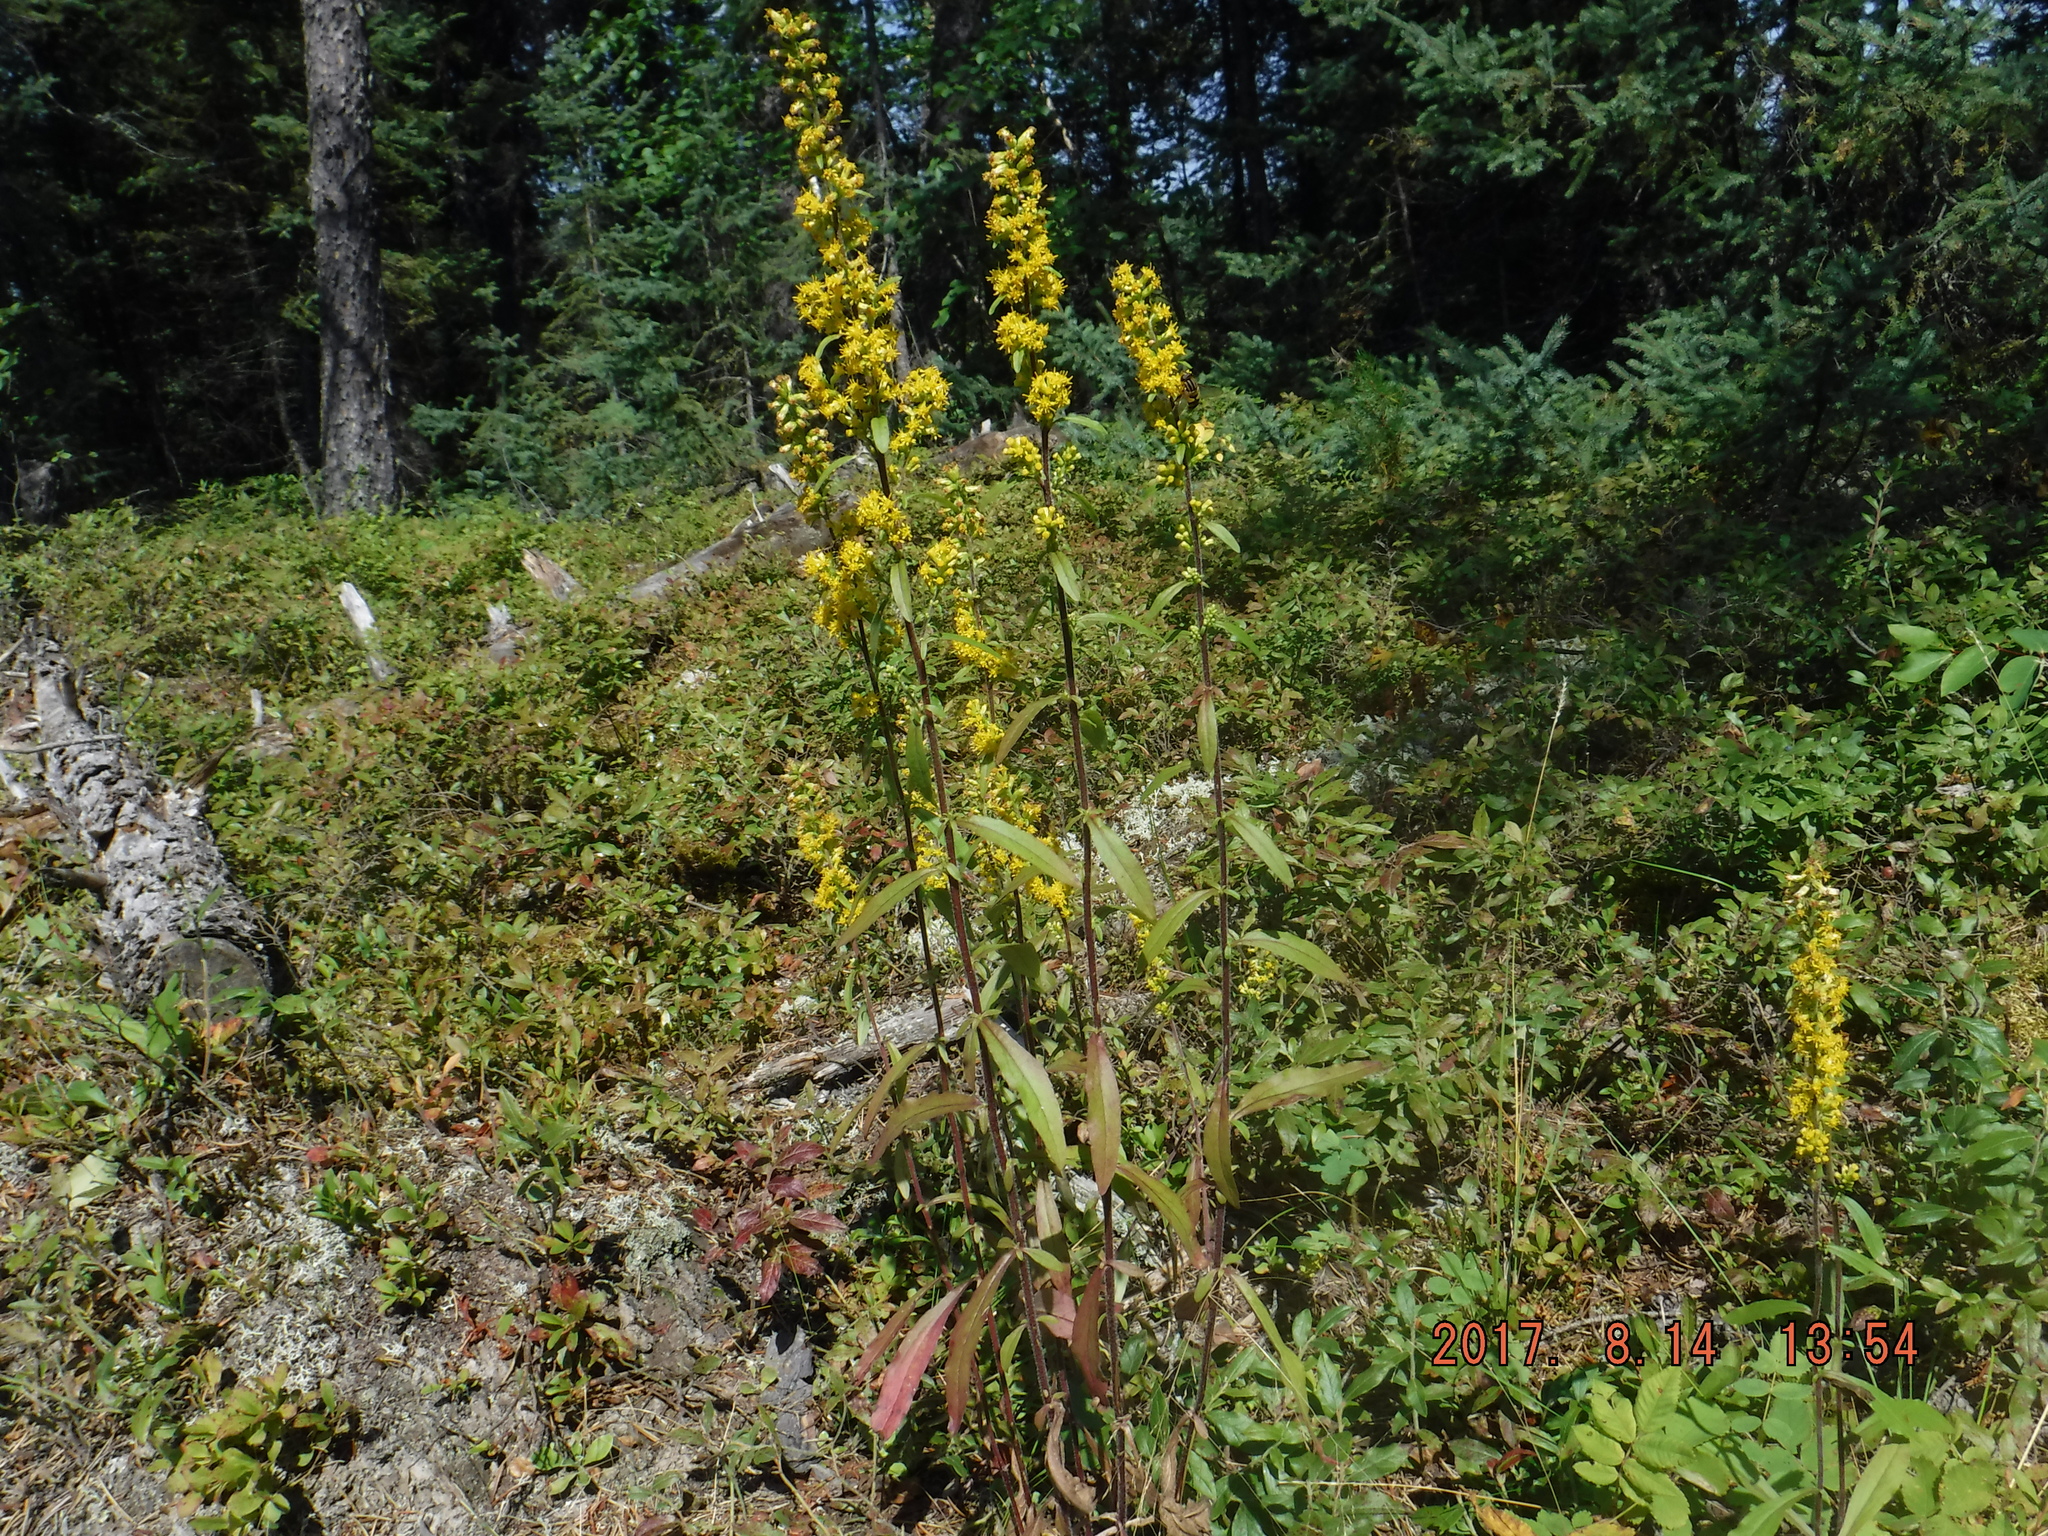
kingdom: Plantae
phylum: Tracheophyta
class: Magnoliopsida
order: Asterales
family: Asteraceae
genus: Solidago
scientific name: Solidago hispida
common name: Hairy goldenrod
